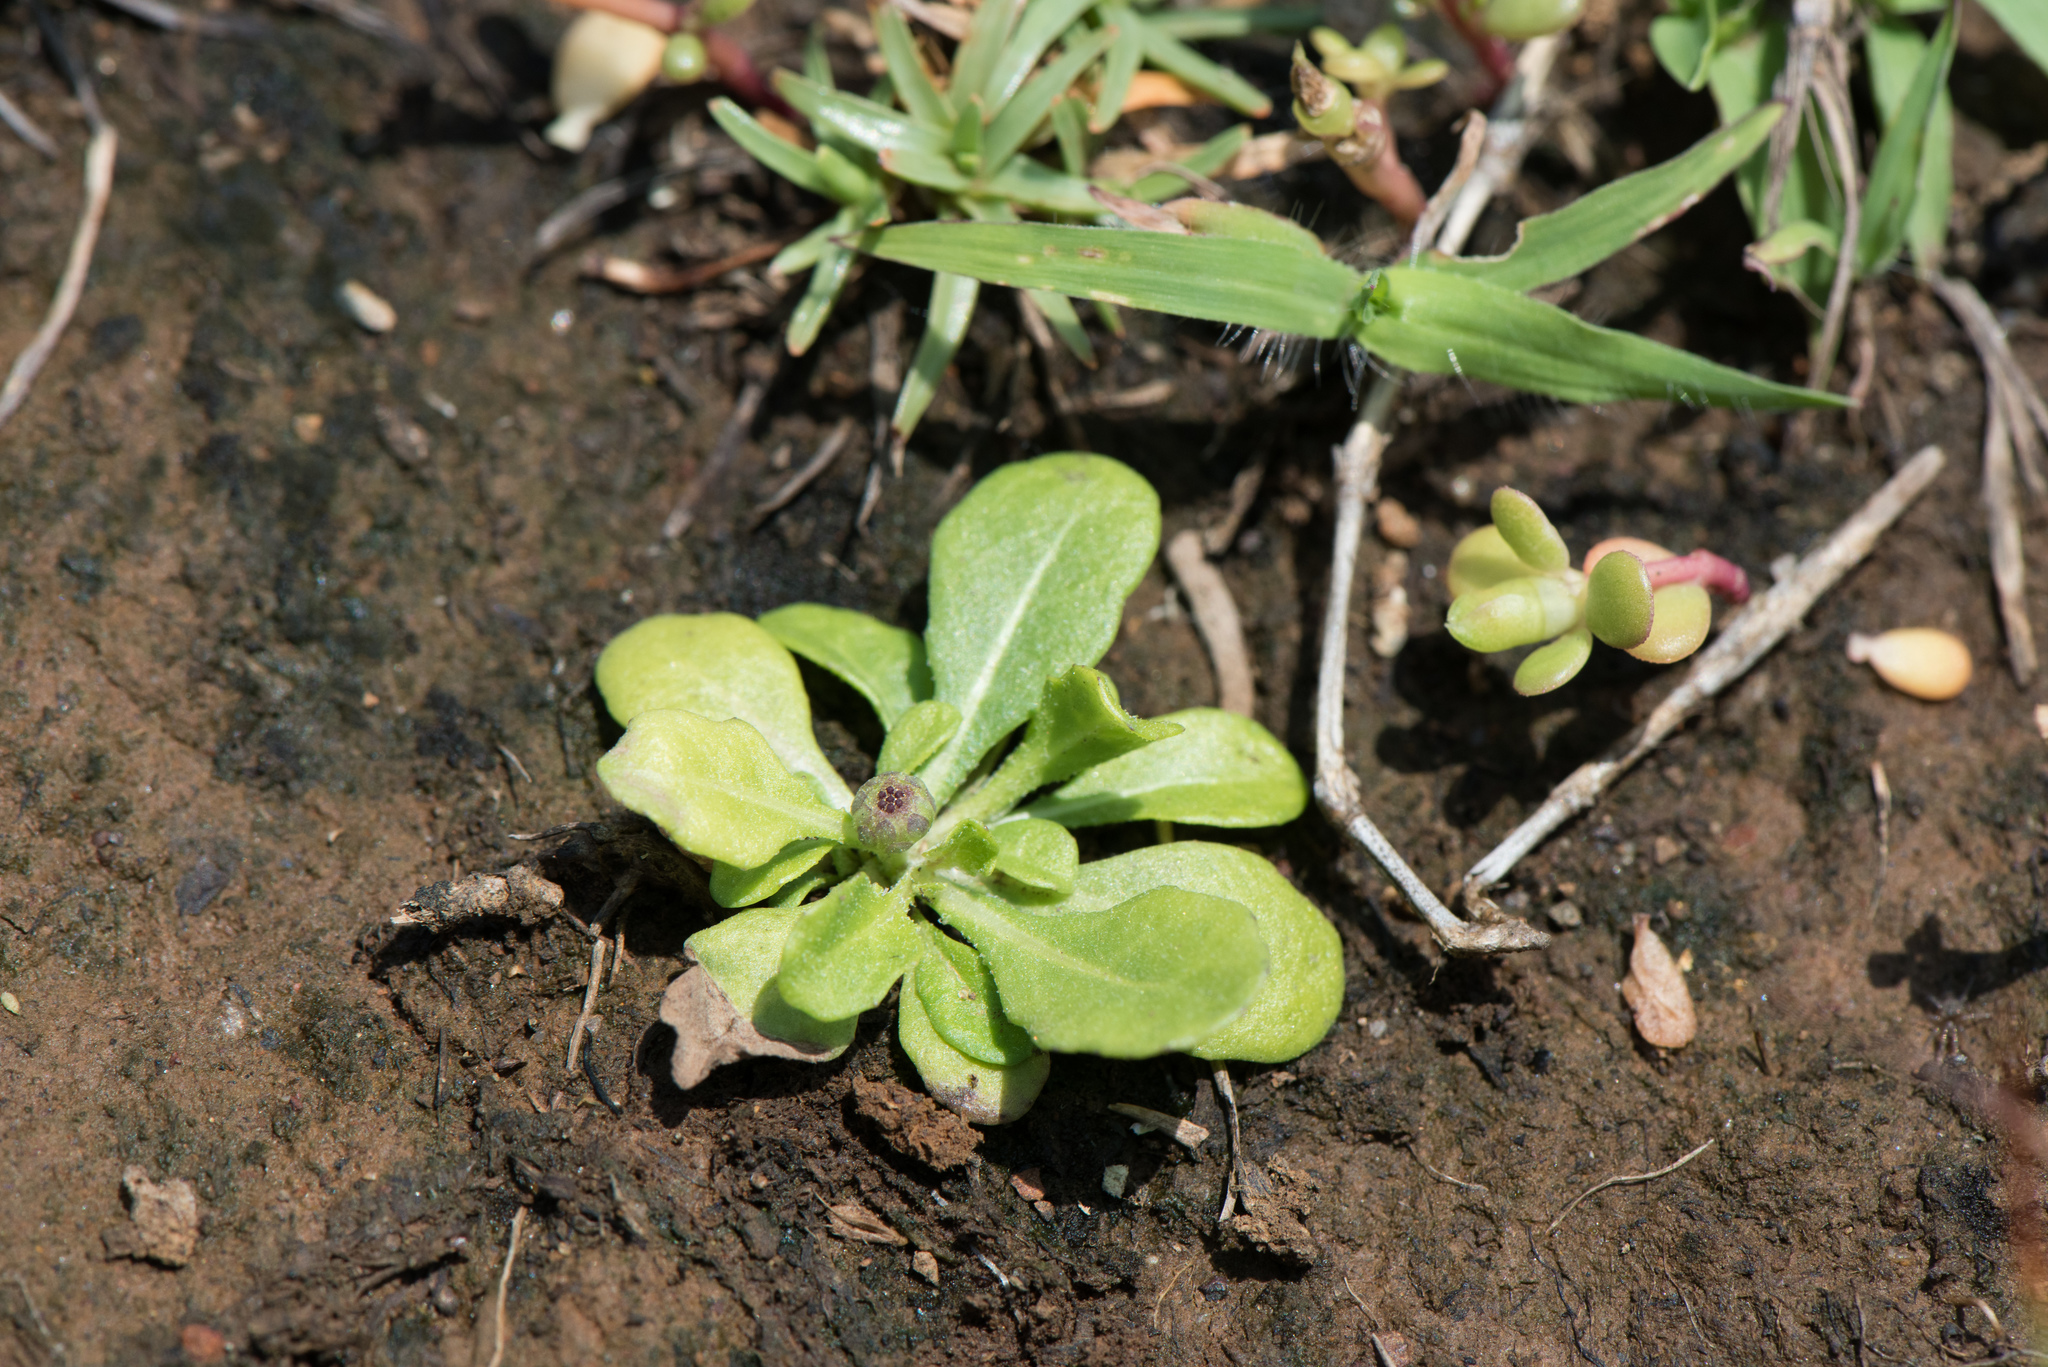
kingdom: Plantae
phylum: Tracheophyta
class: Magnoliopsida
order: Asterales
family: Asteraceae
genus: Sphaeromorphaea
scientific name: Sphaeromorphaea australis
